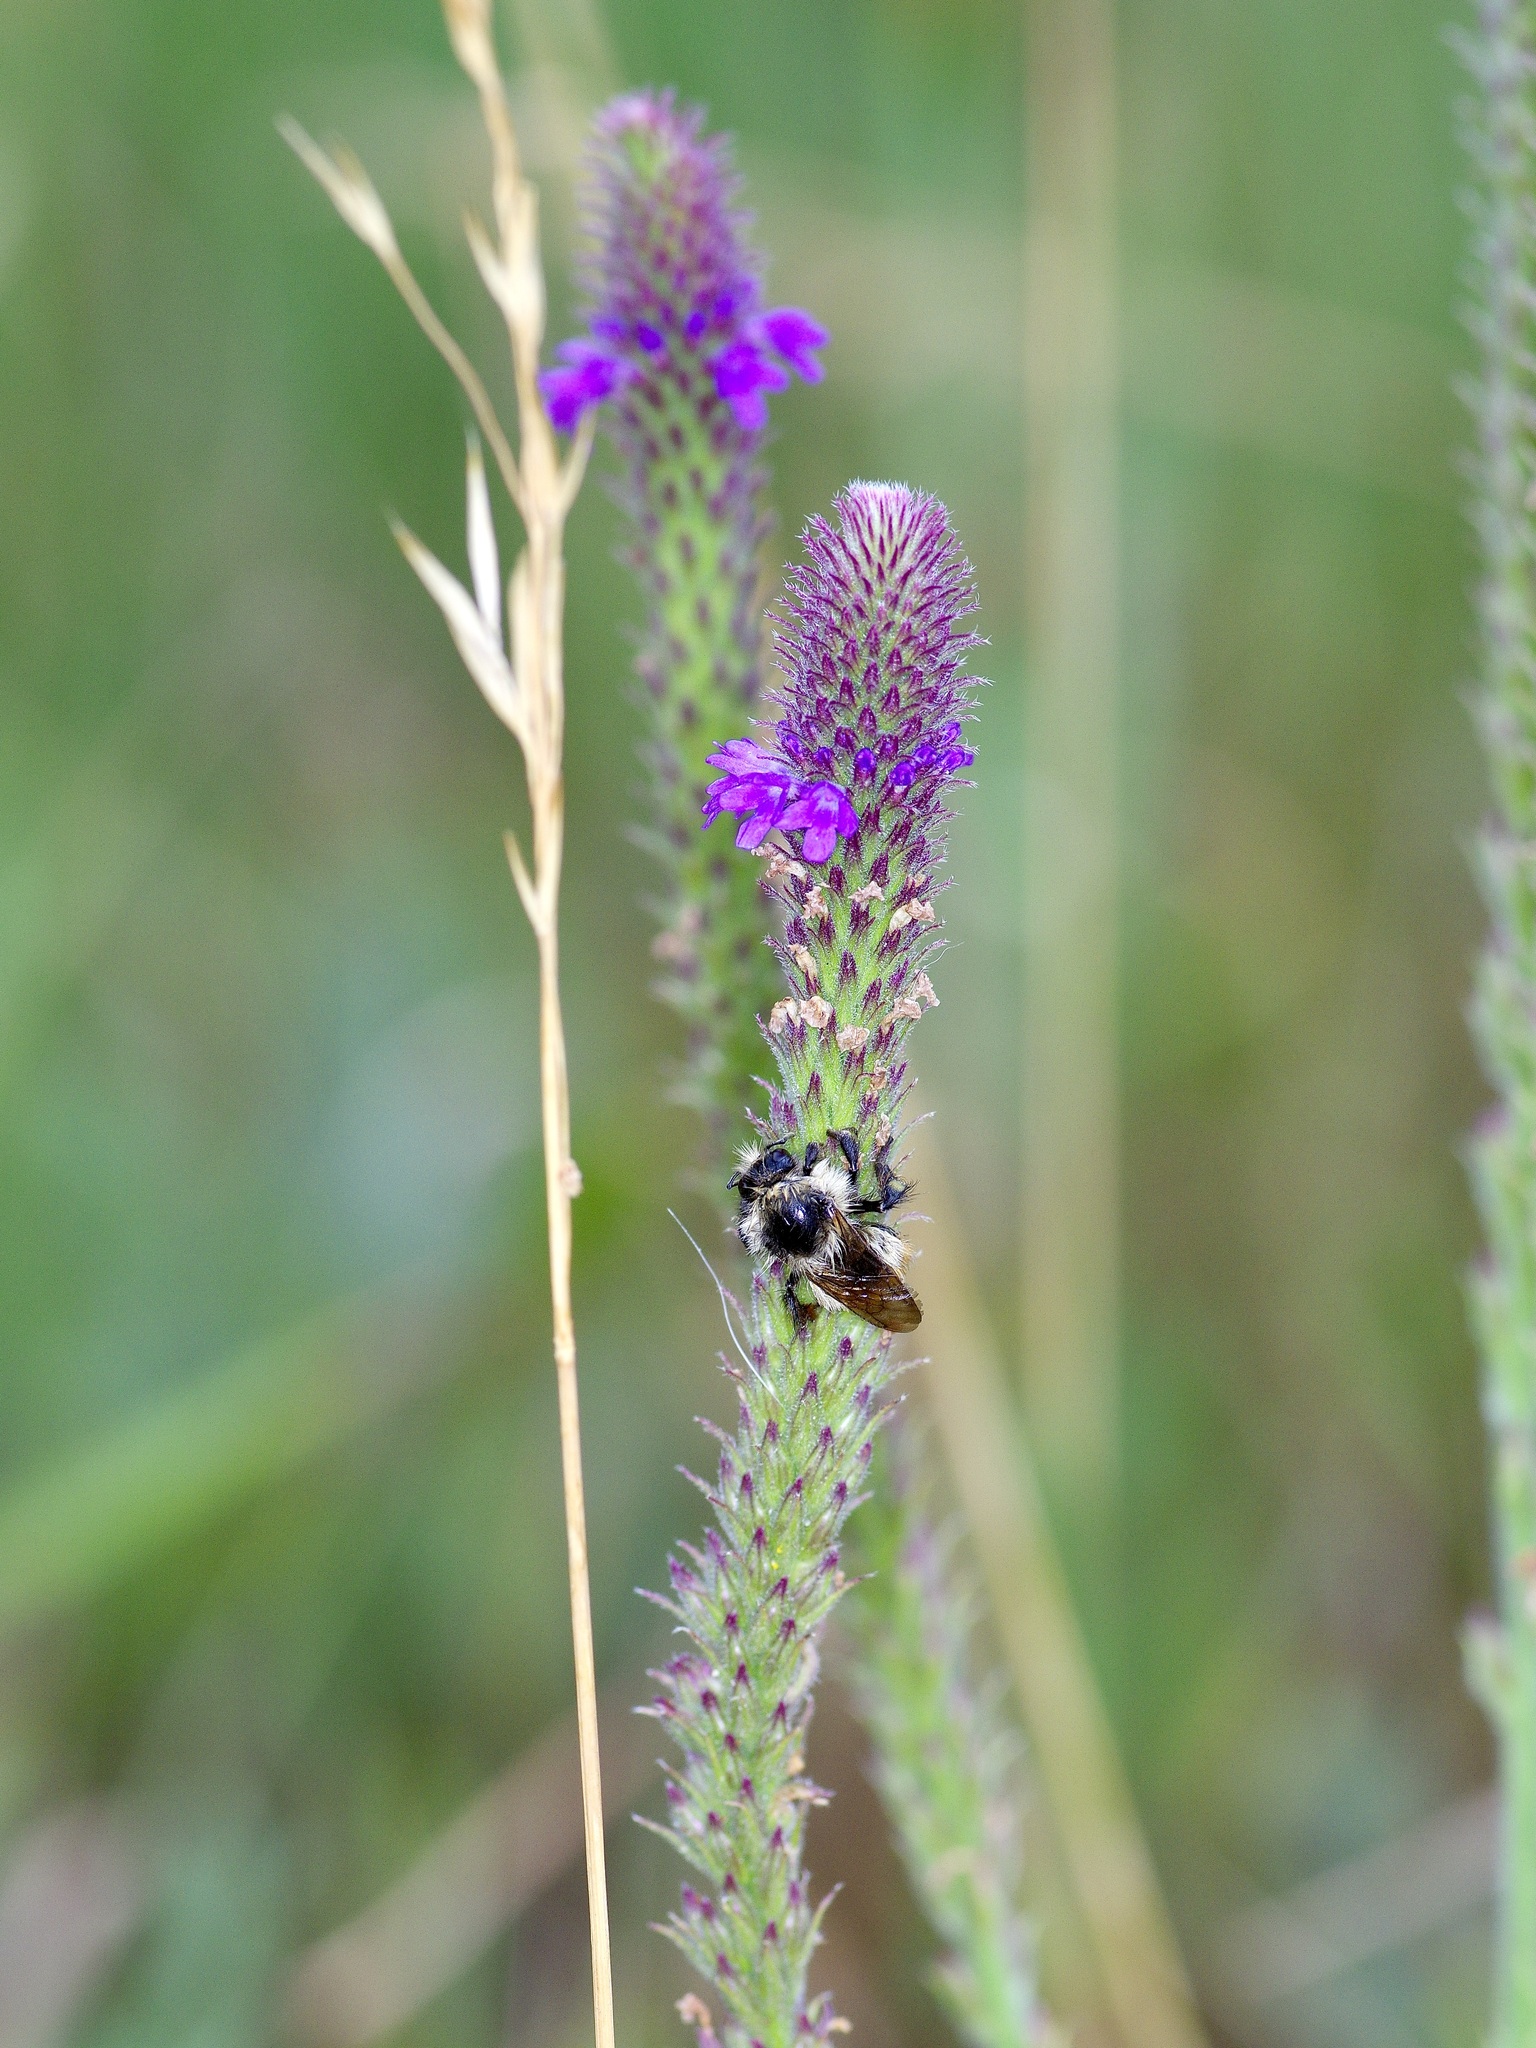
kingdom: Plantae
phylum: Tracheophyta
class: Magnoliopsida
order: Lamiales
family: Verbenaceae
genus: Verbena
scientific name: Verbena macdougalii
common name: New mexico vervain
